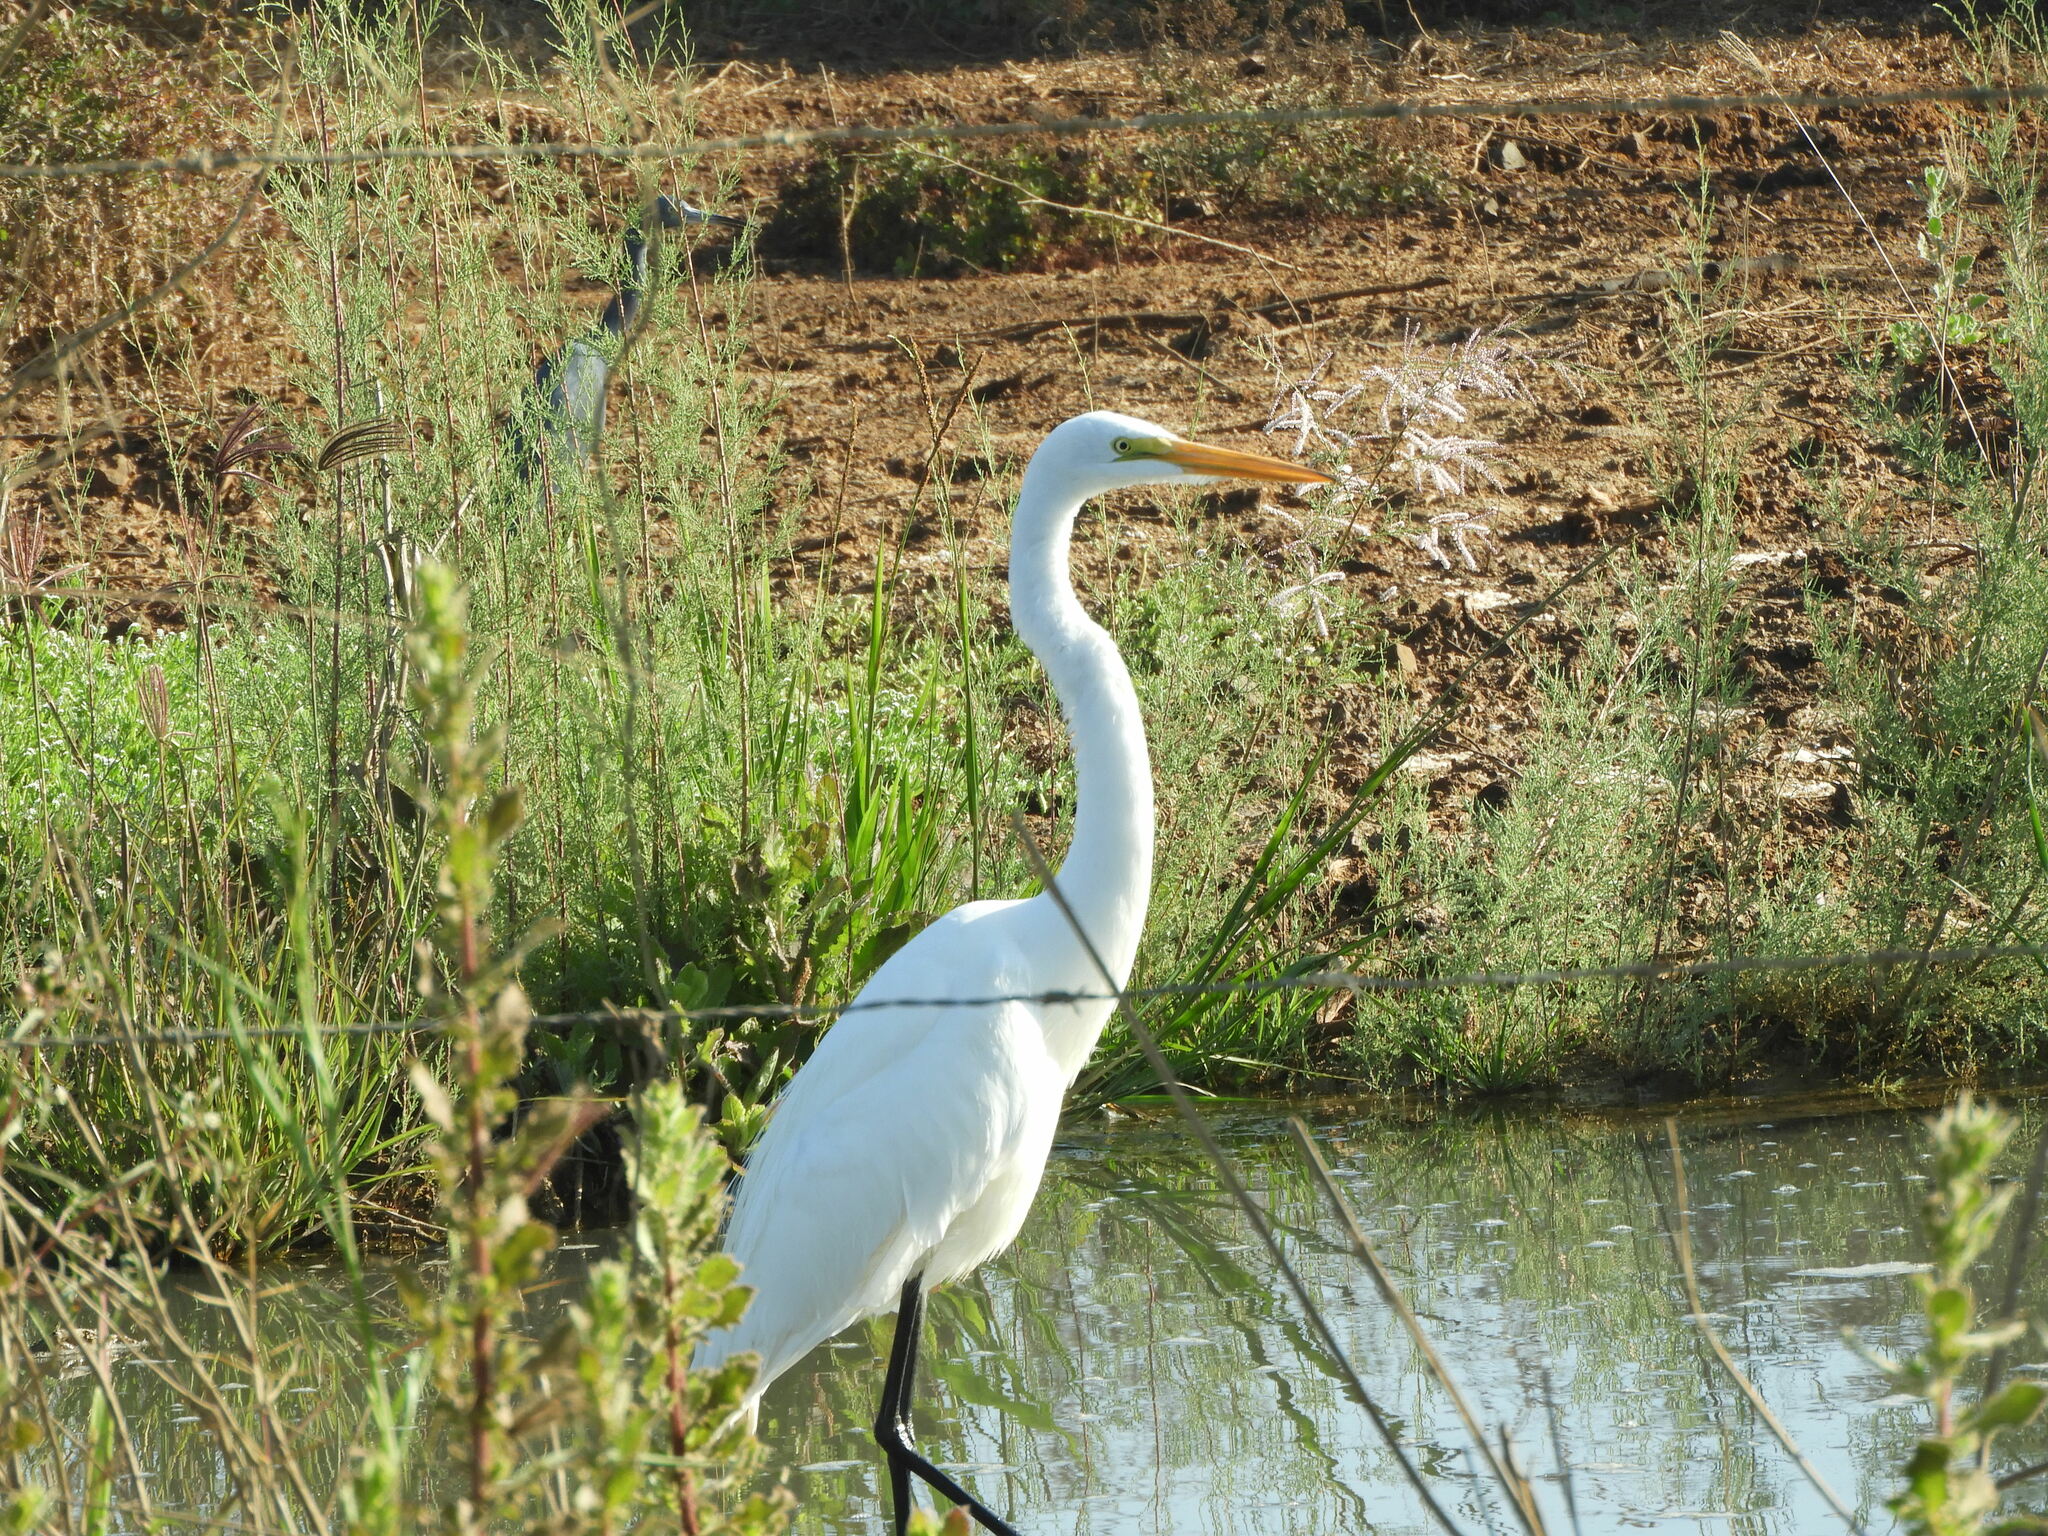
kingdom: Animalia
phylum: Chordata
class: Aves
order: Pelecaniformes
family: Ardeidae
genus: Ardea
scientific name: Ardea alba
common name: Great egret
